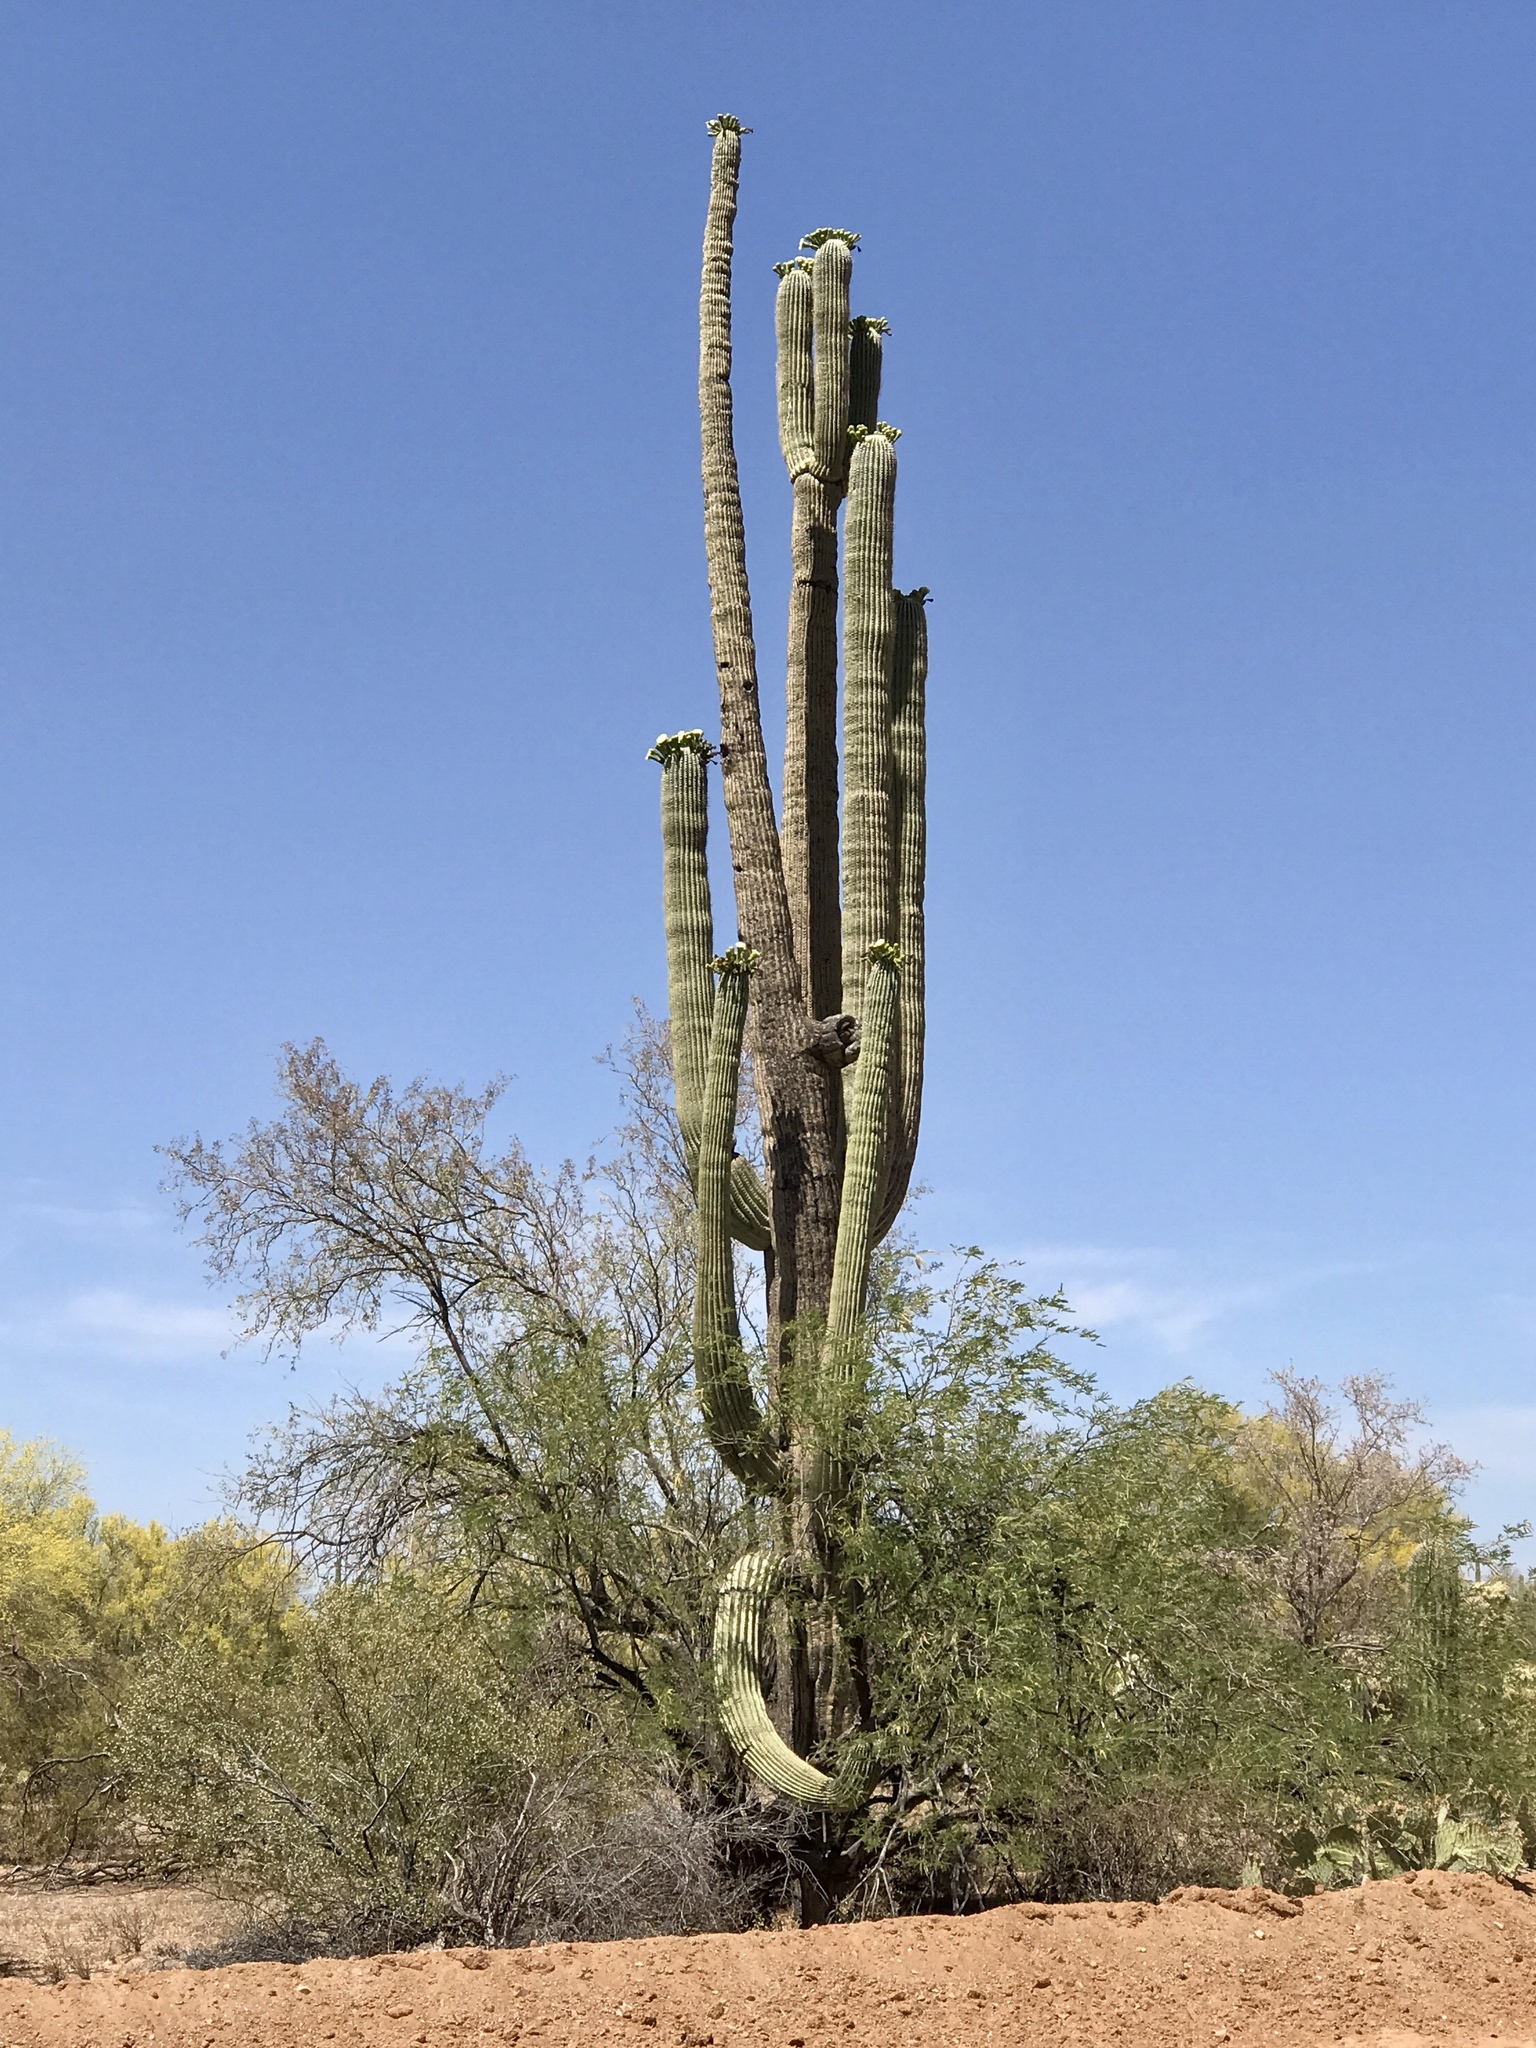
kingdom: Plantae
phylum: Tracheophyta
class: Magnoliopsida
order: Caryophyllales
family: Cactaceae
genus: Carnegiea
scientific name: Carnegiea gigantea
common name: Saguaro
